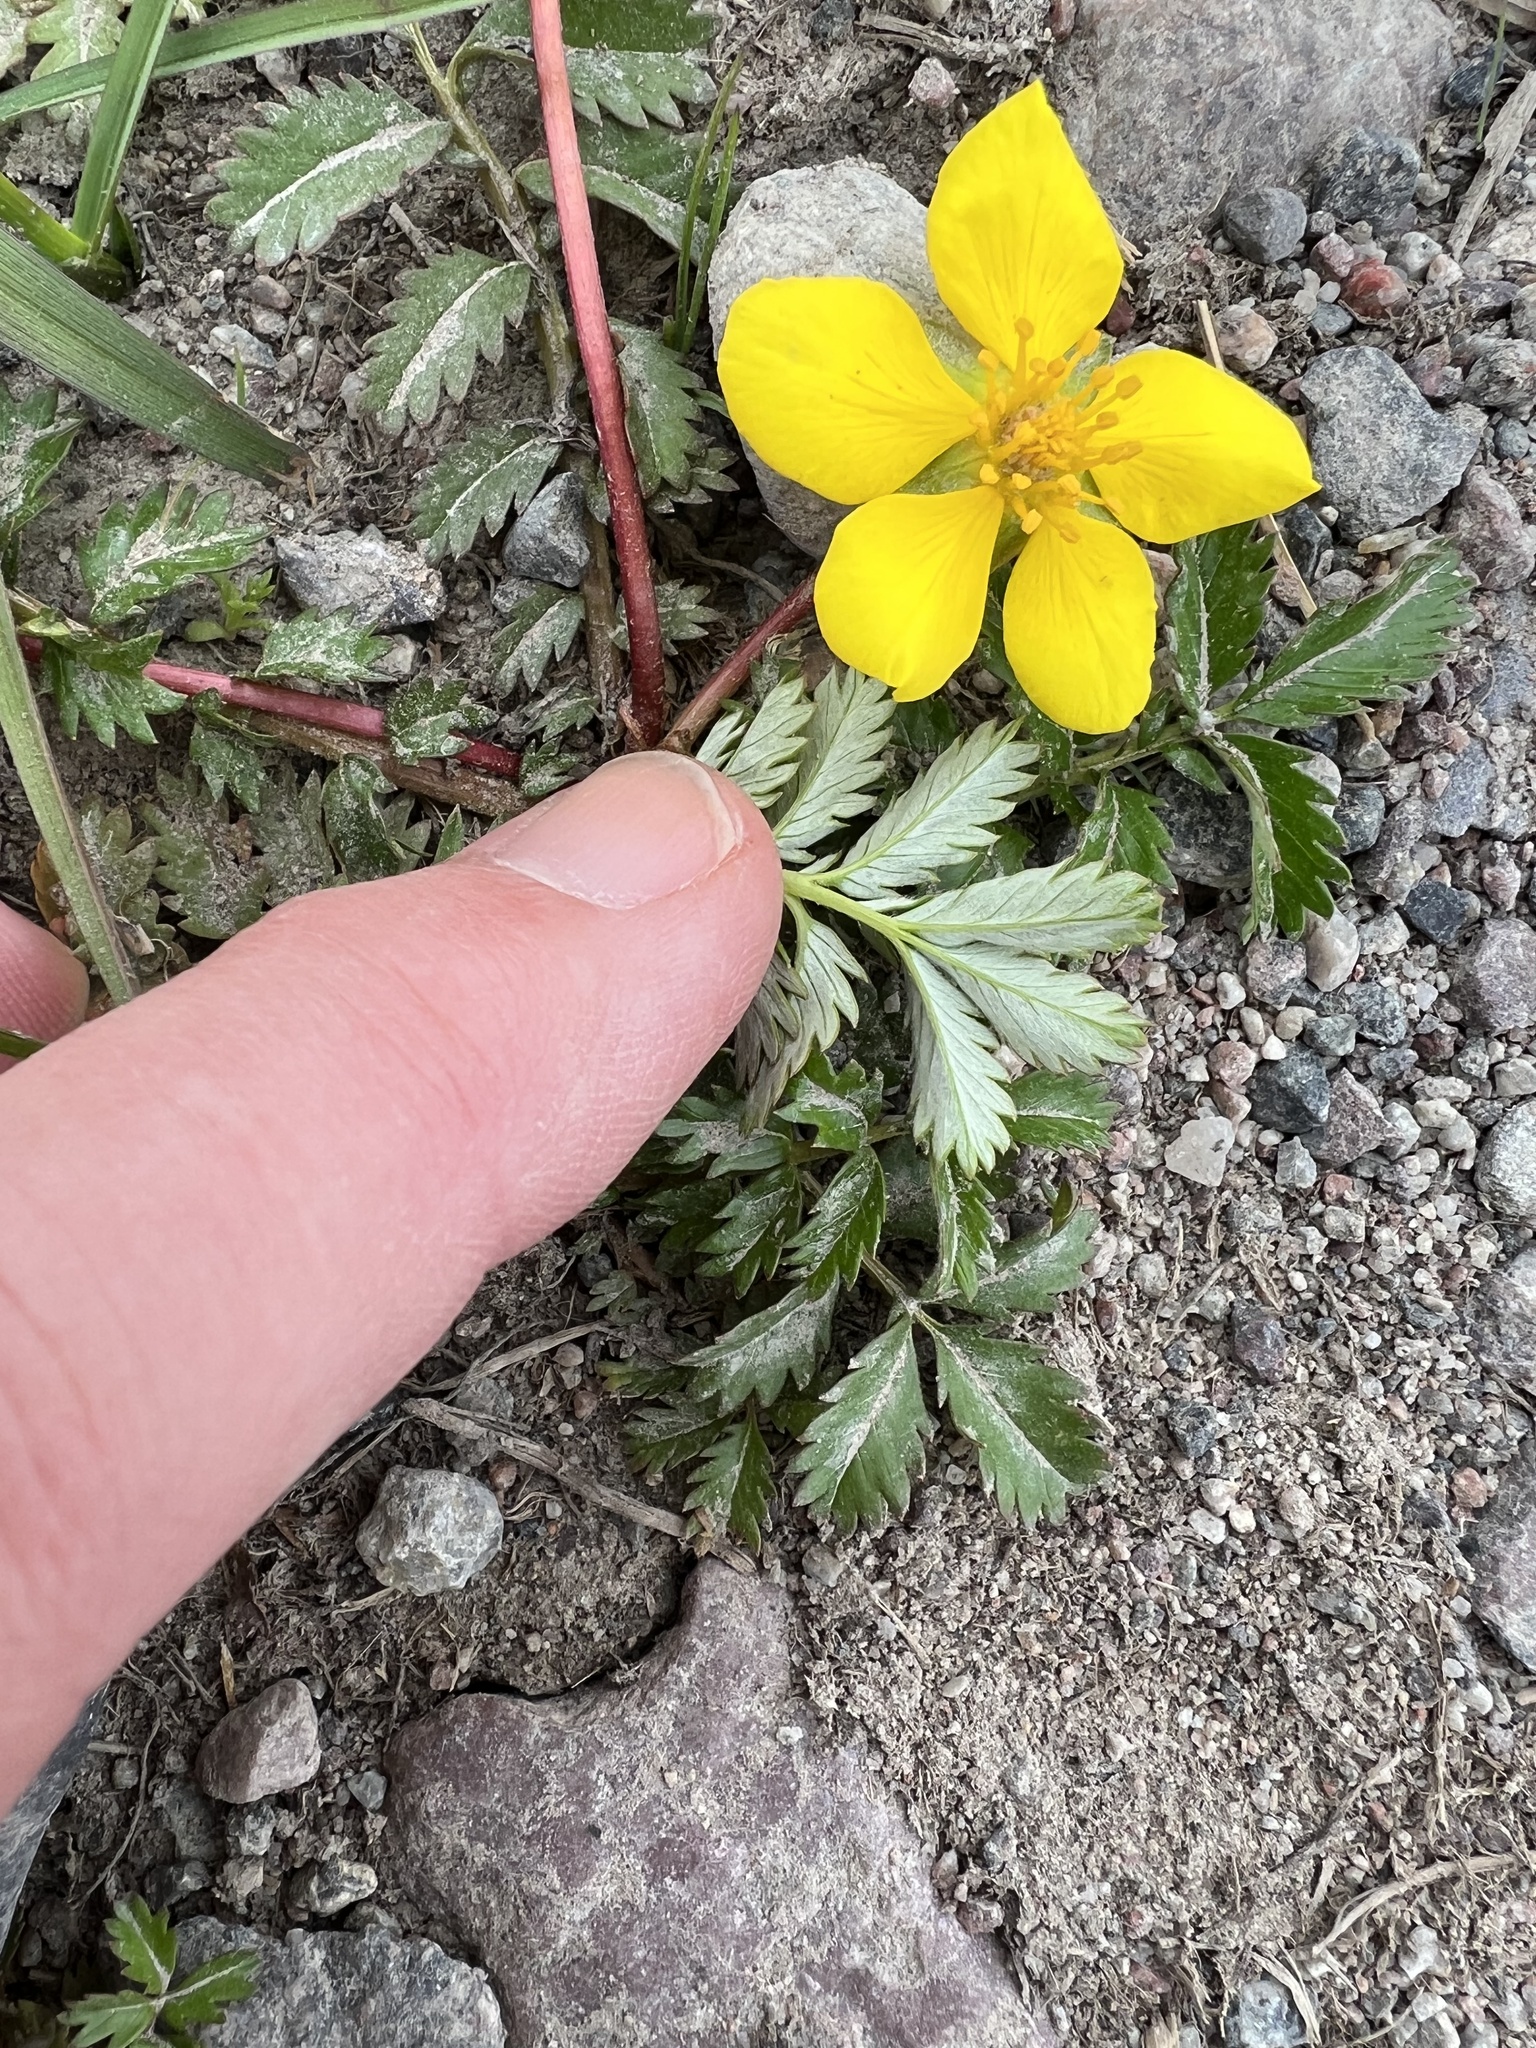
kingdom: Plantae
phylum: Tracheophyta
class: Magnoliopsida
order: Rosales
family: Rosaceae
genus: Argentina
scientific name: Argentina anserina
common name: Common silverweed
